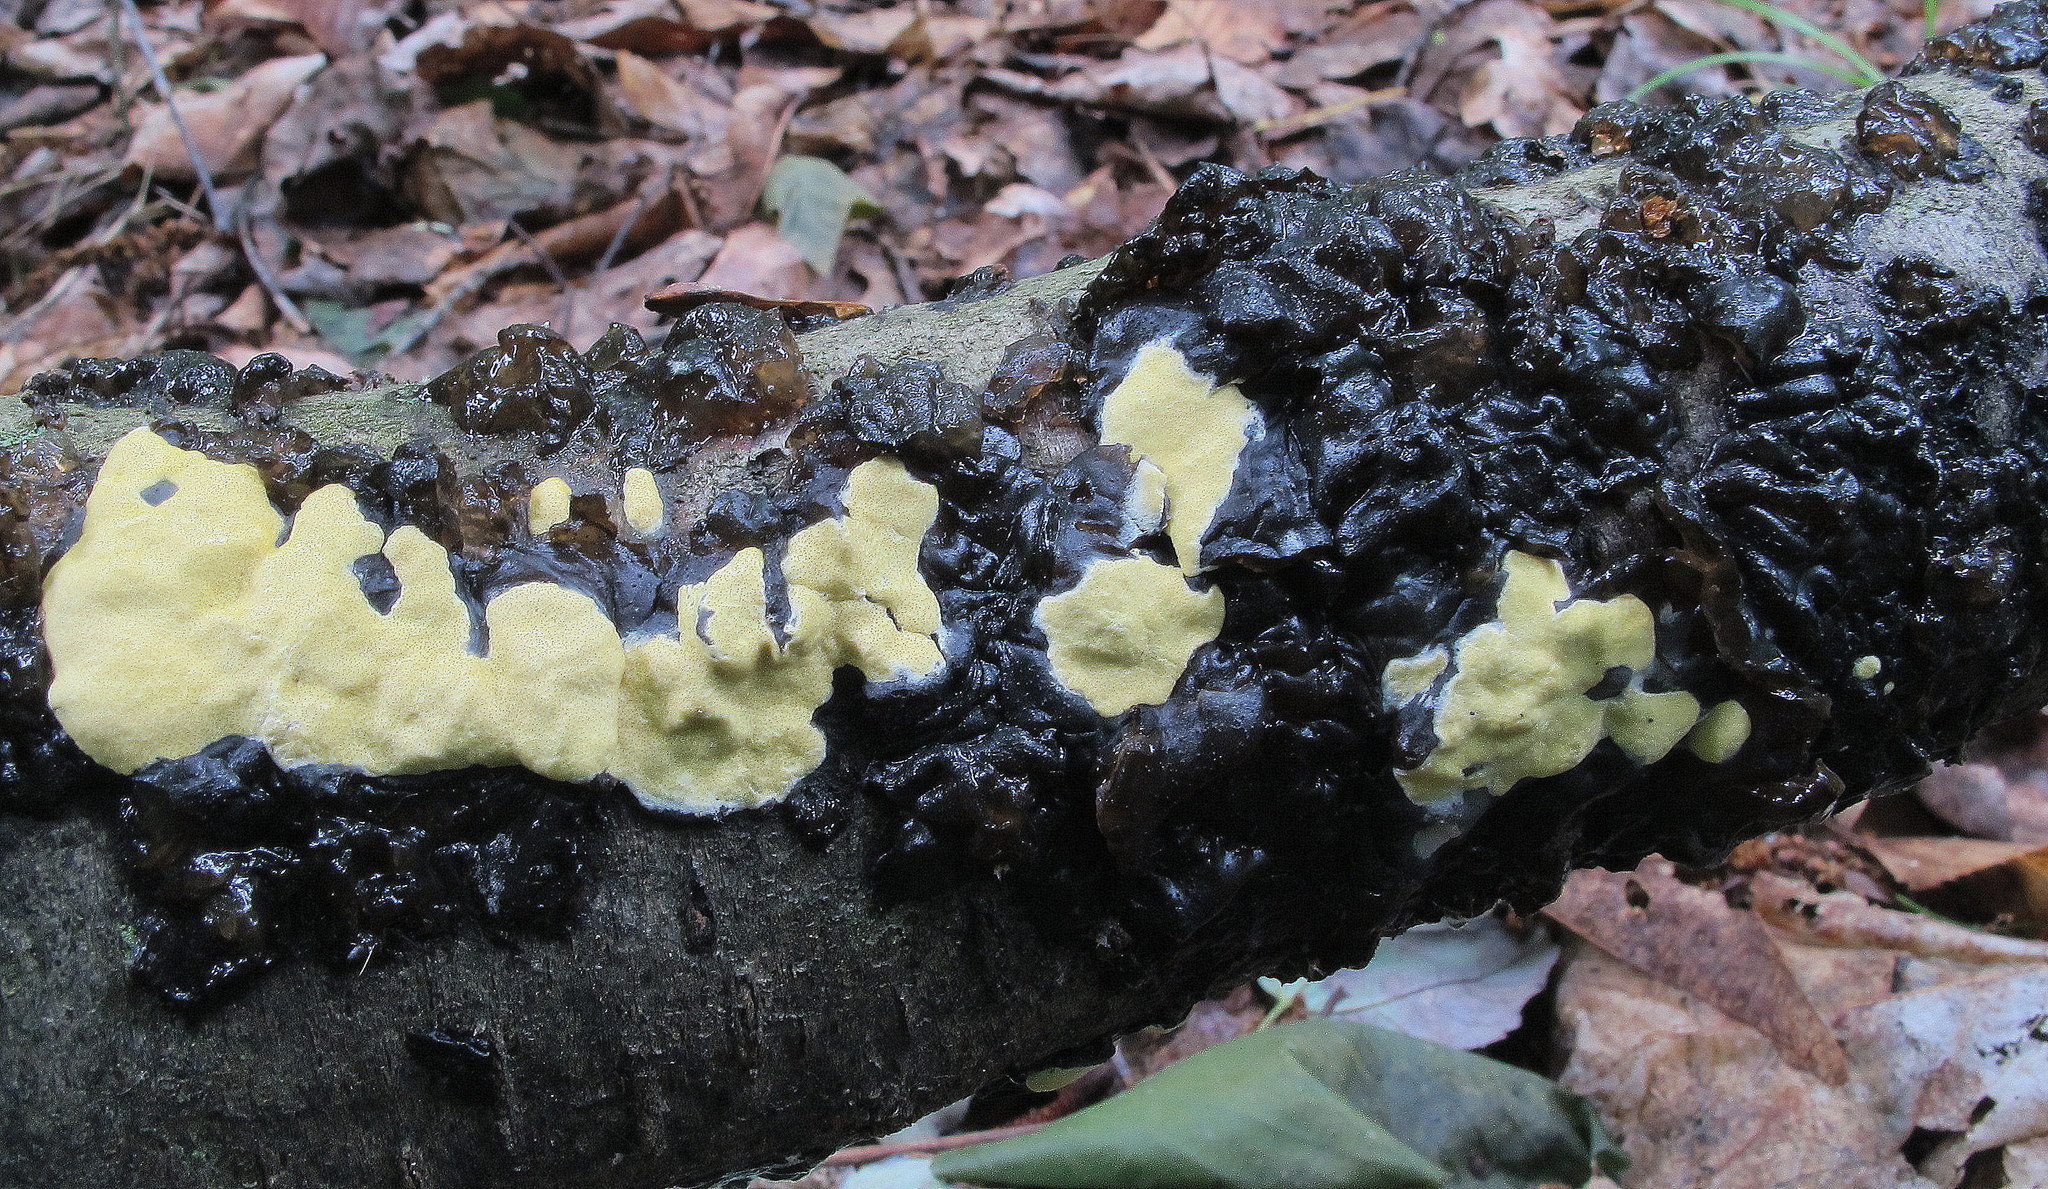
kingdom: Fungi
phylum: Ascomycota
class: Sordariomycetes
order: Hypocreales
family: Hypocreaceae
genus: Trichoderma
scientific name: Trichoderma sulphureum
